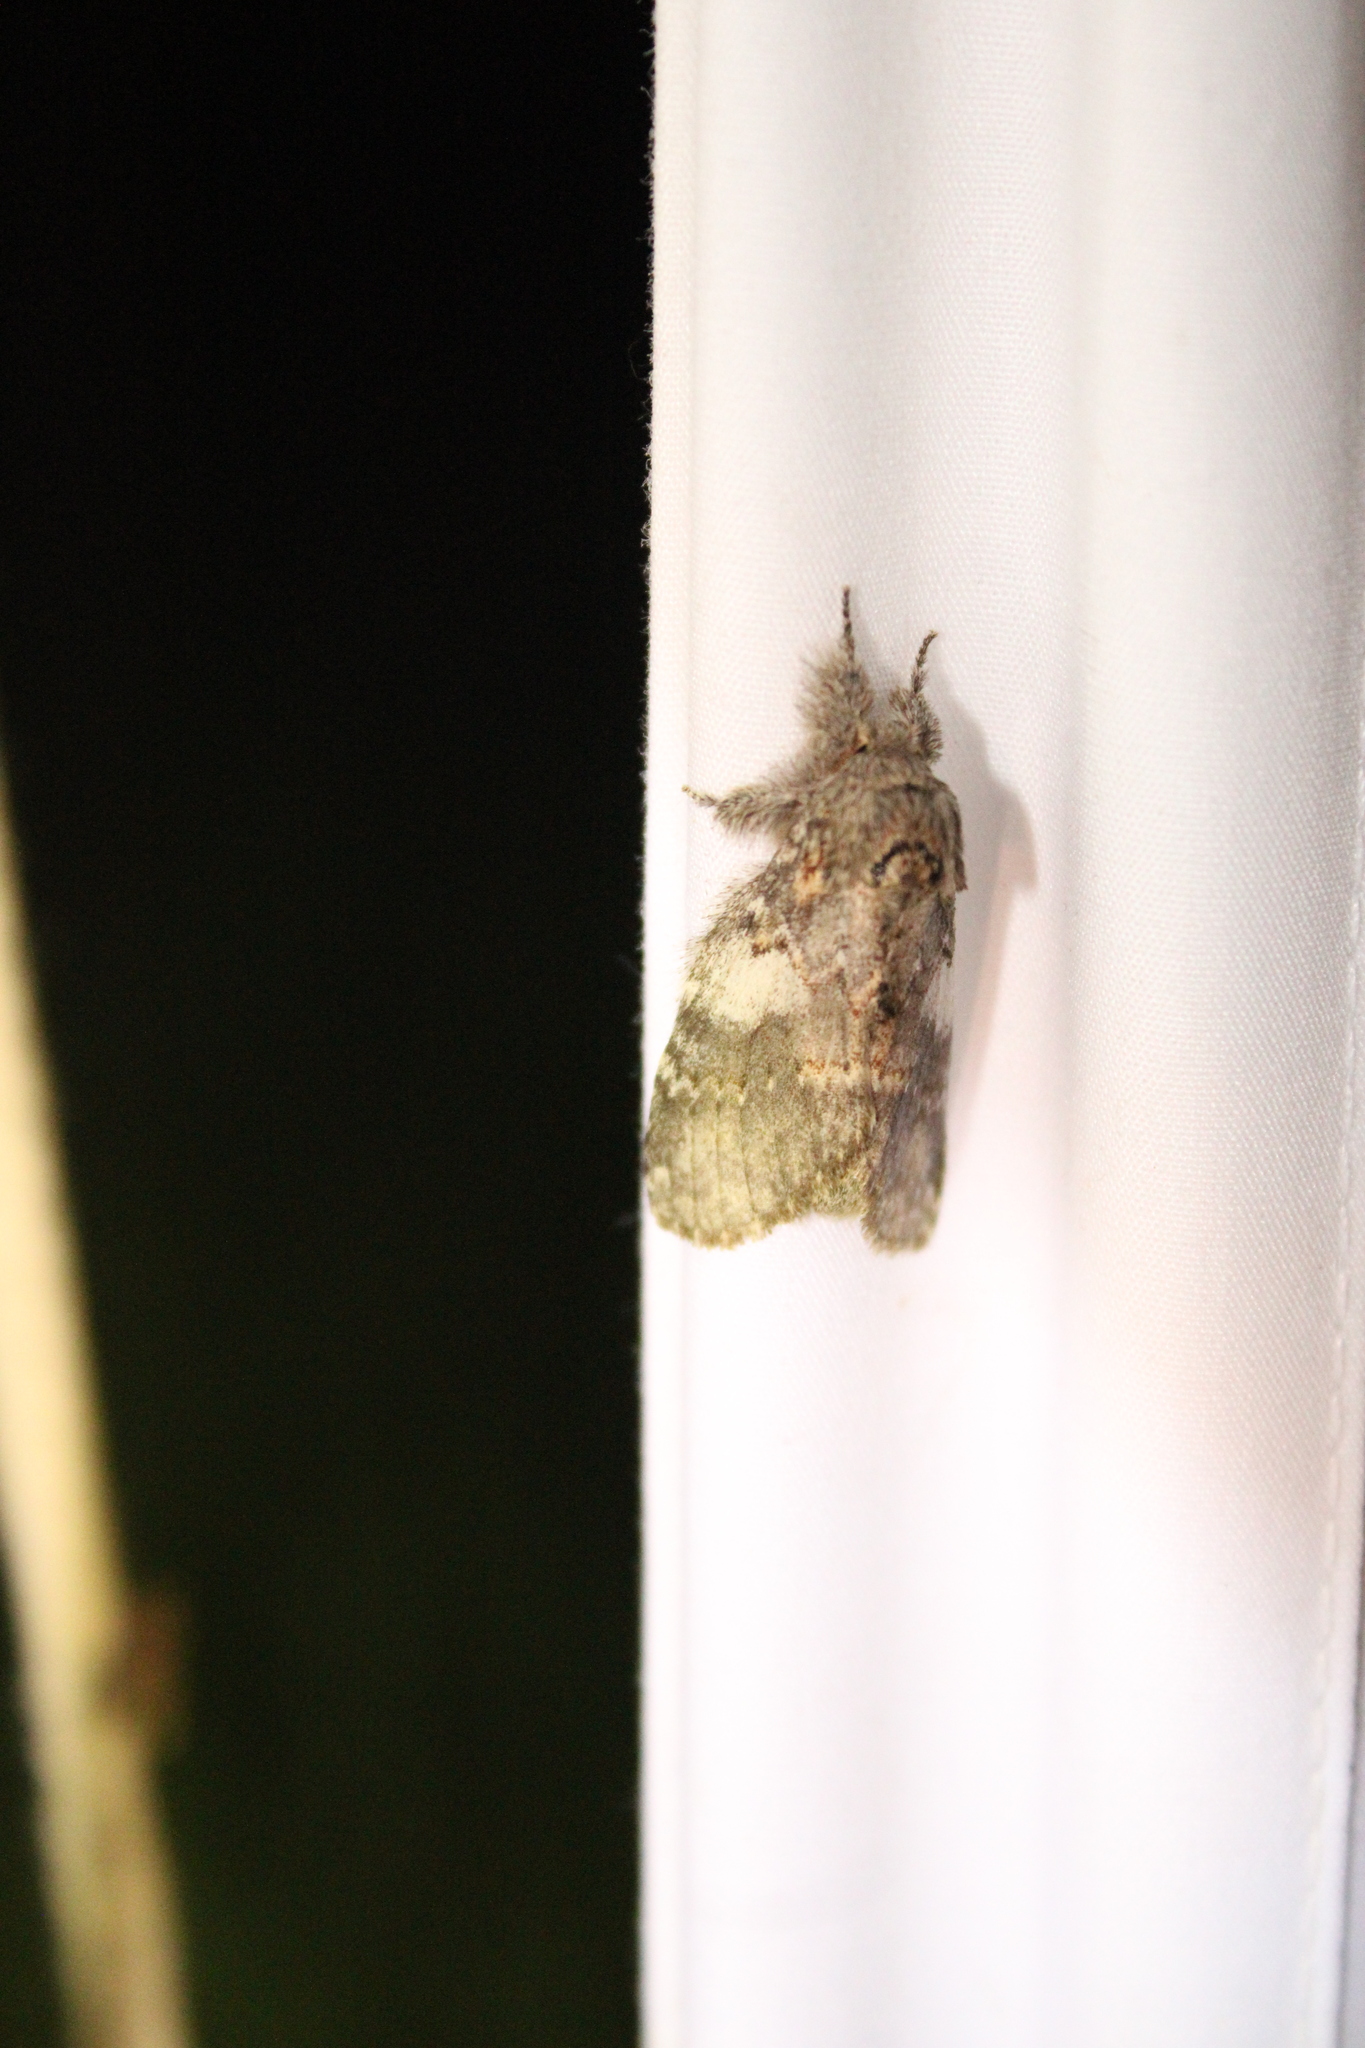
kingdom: Animalia
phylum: Arthropoda
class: Insecta
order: Lepidoptera
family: Notodontidae
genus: Peridea
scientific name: Peridea angulosa
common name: Angulose prominent
